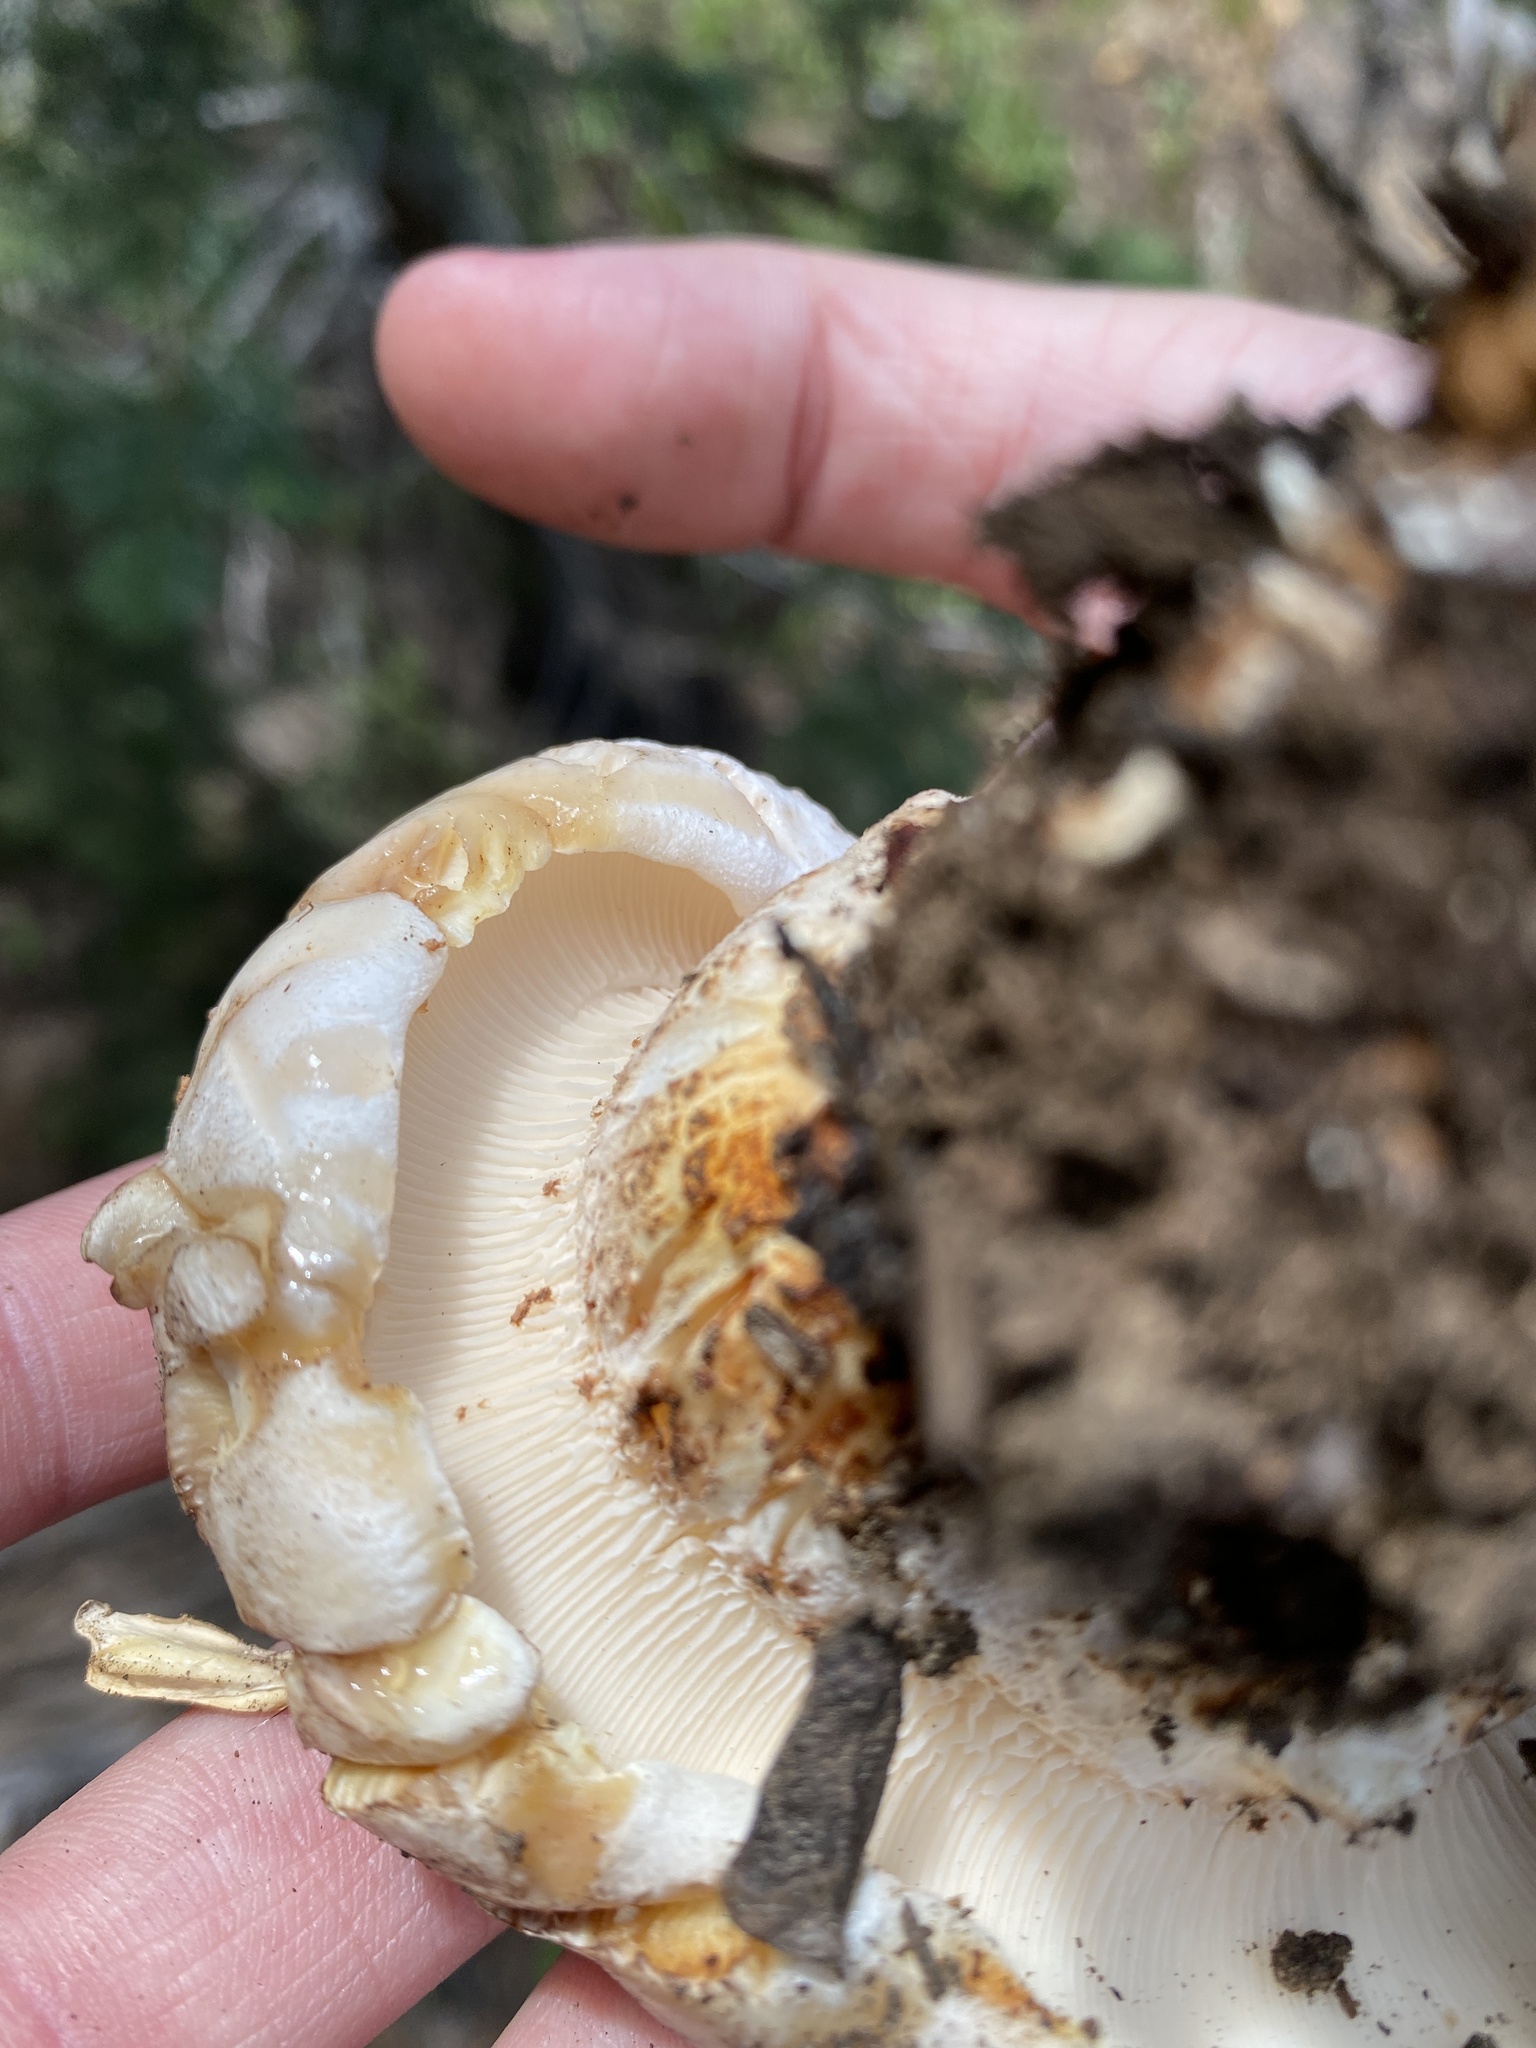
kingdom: Fungi
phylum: Basidiomycota
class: Agaricomycetes
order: Gloeophyllales
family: Gloeophyllaceae
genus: Neolentinus
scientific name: Neolentinus ponderosus
